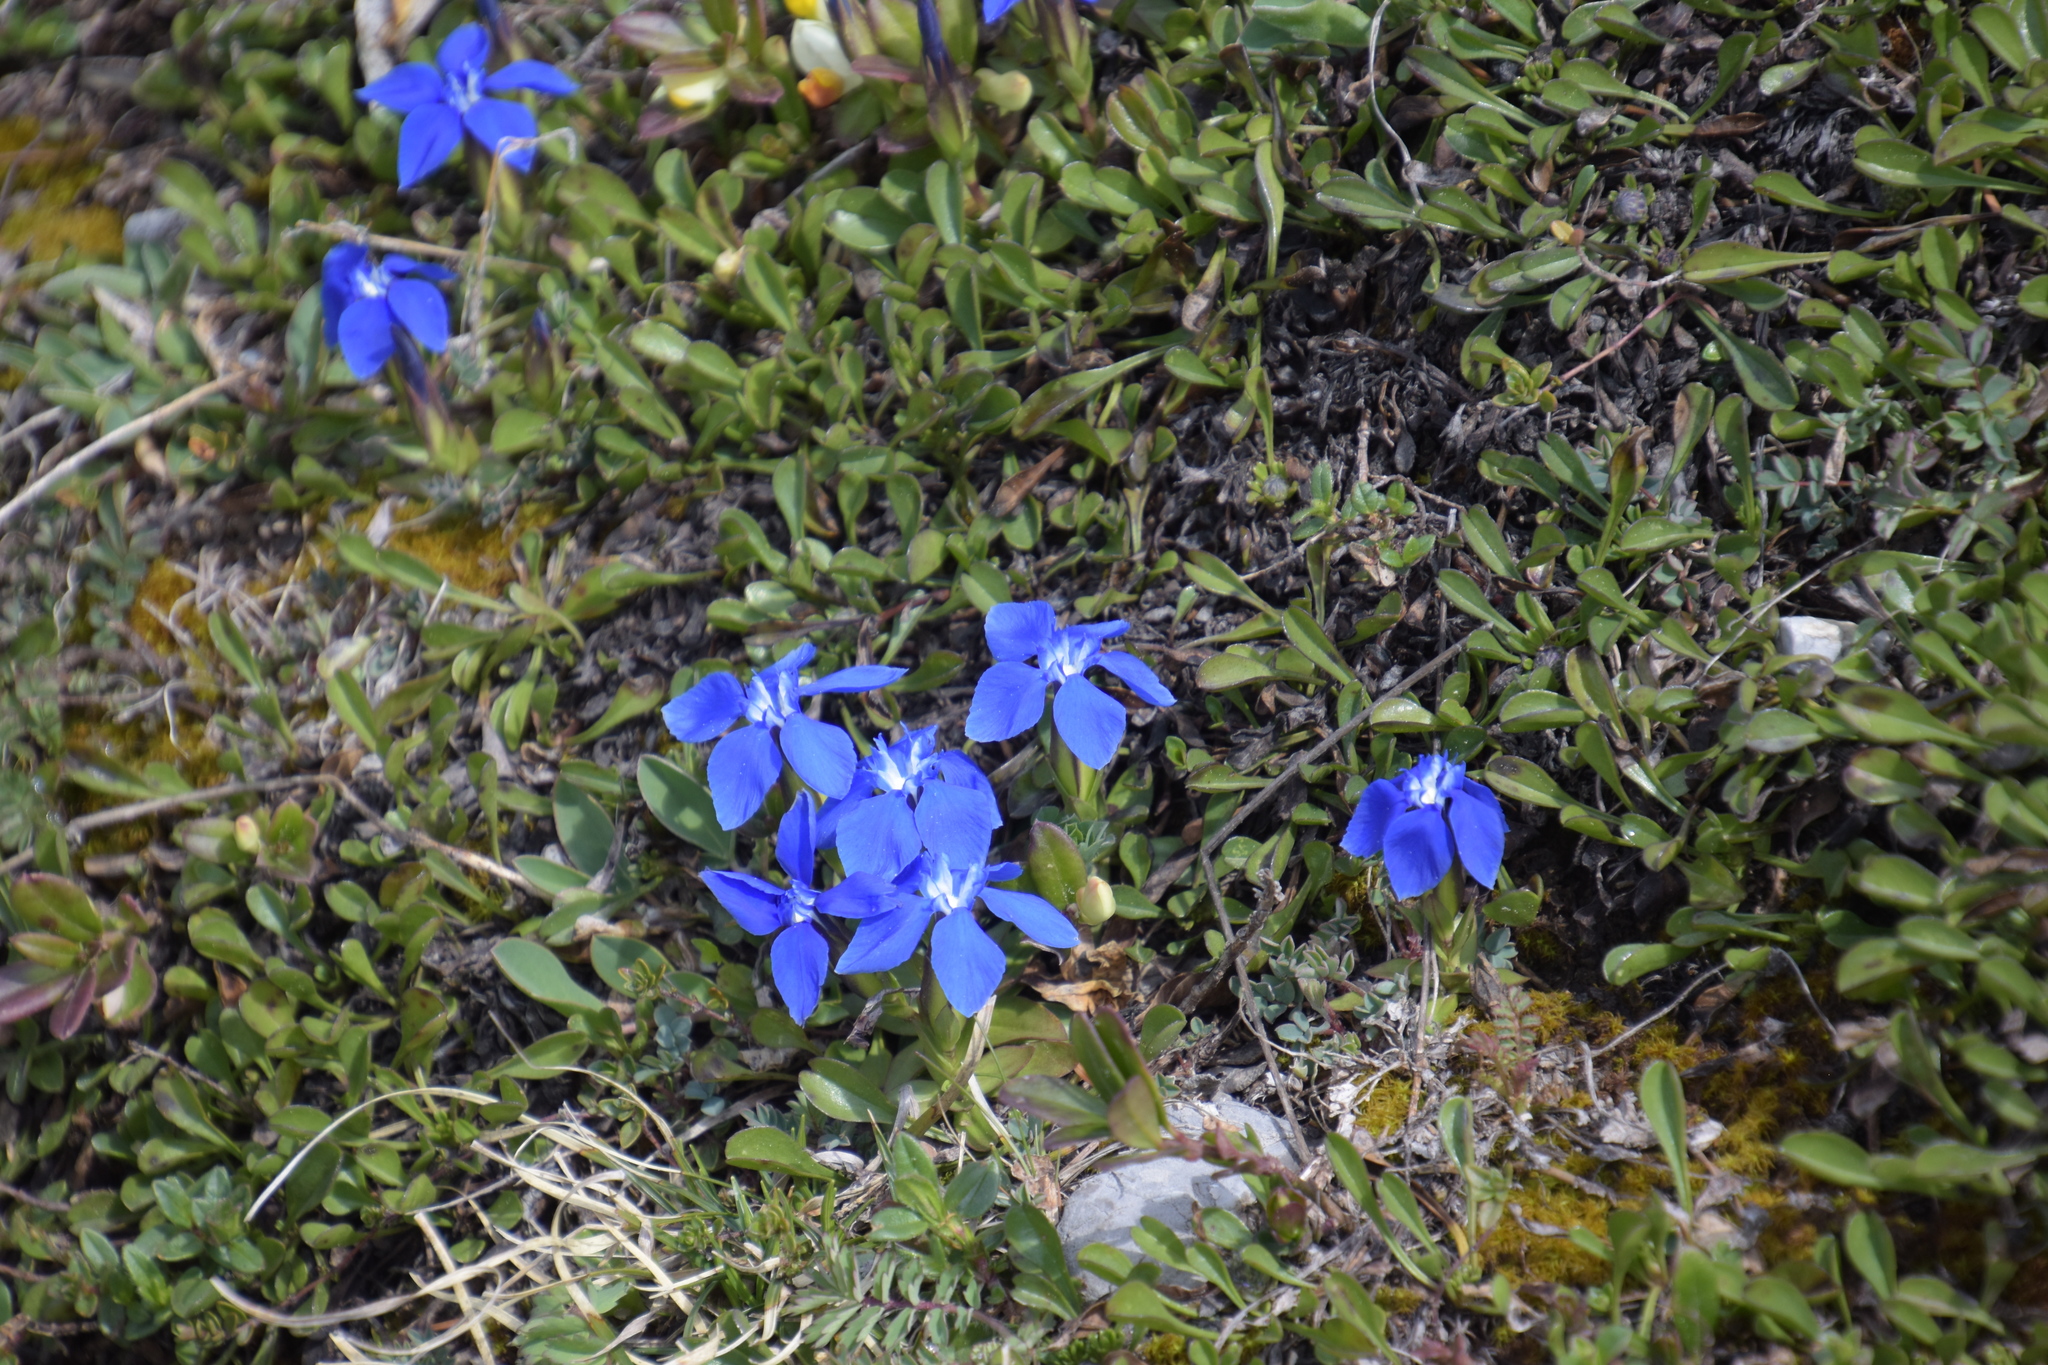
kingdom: Plantae
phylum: Tracheophyta
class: Magnoliopsida
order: Gentianales
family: Gentianaceae
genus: Gentiana
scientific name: Gentiana verna
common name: Spring gentian
